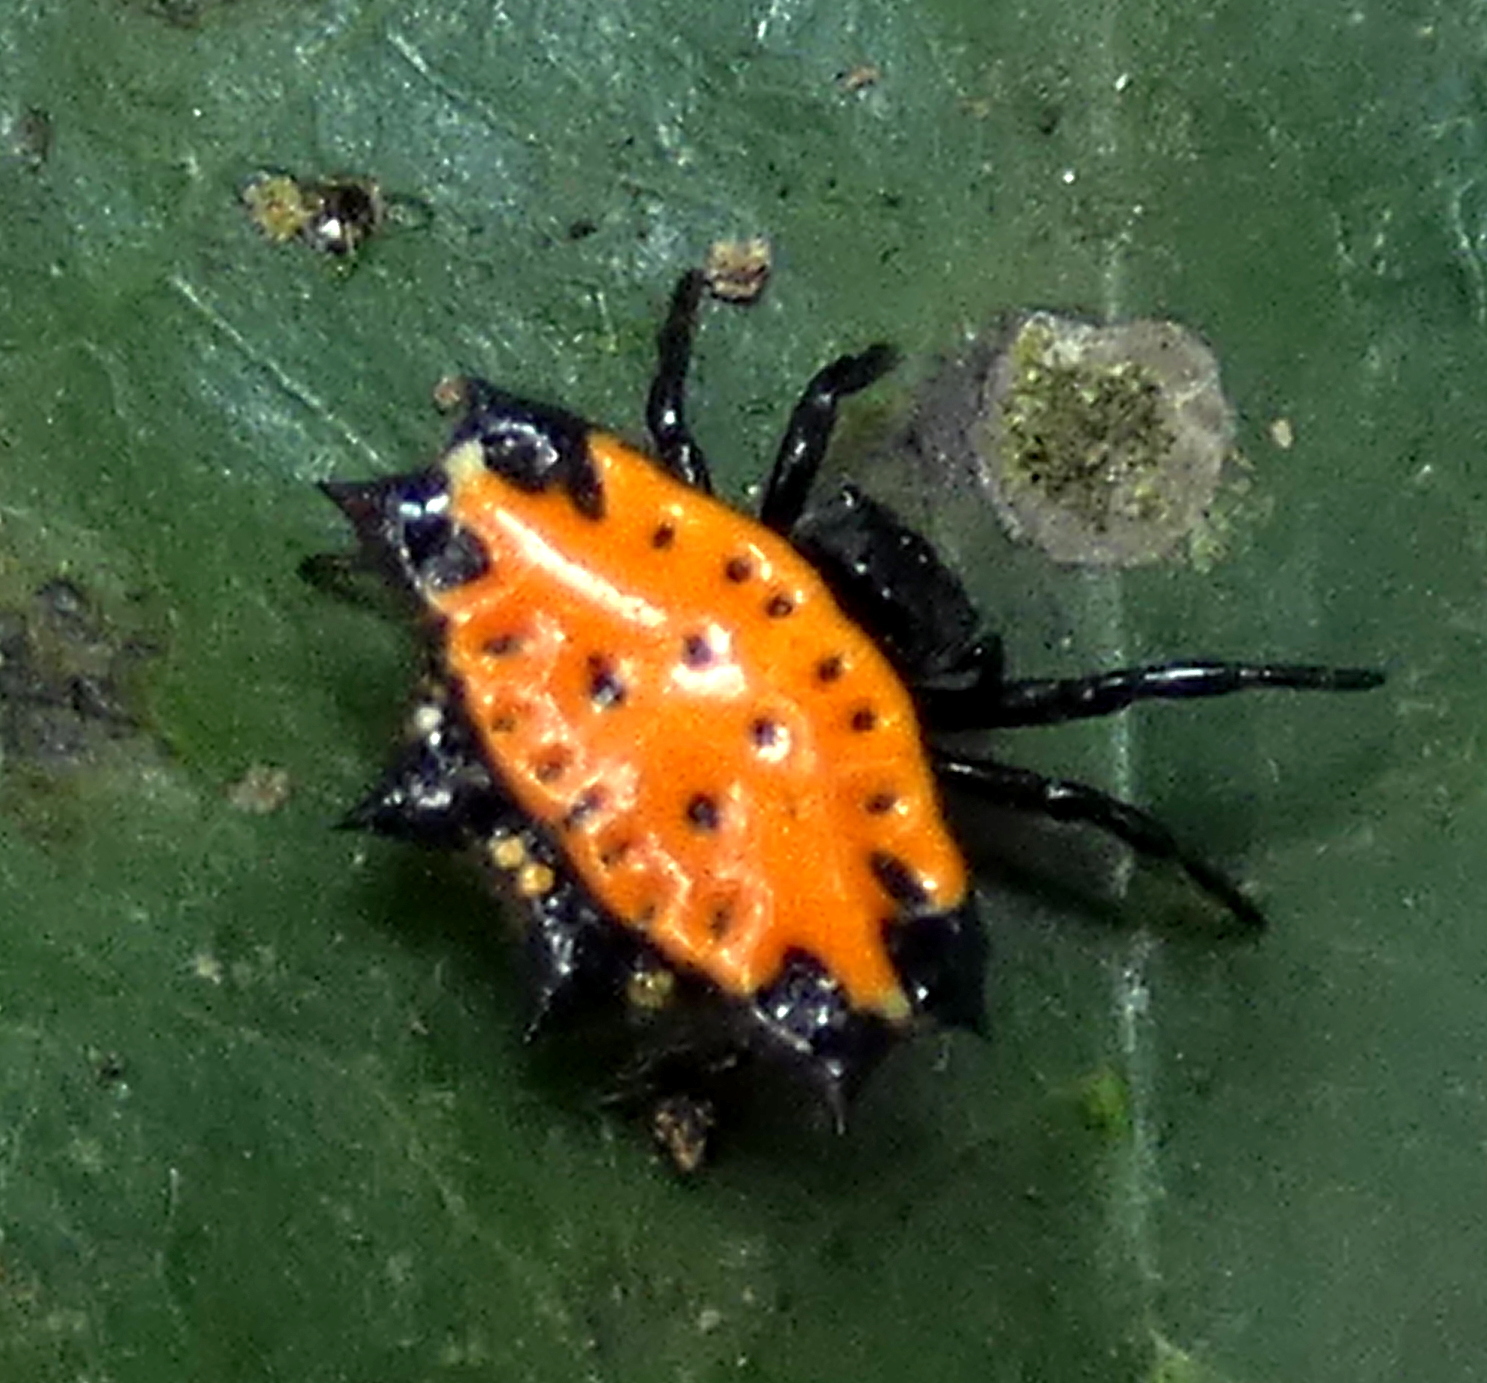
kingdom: Animalia
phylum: Arthropoda
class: Arachnida
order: Araneae
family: Araneidae
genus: Gasteracantha
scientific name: Gasteracantha cancriformis
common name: Orb weavers
